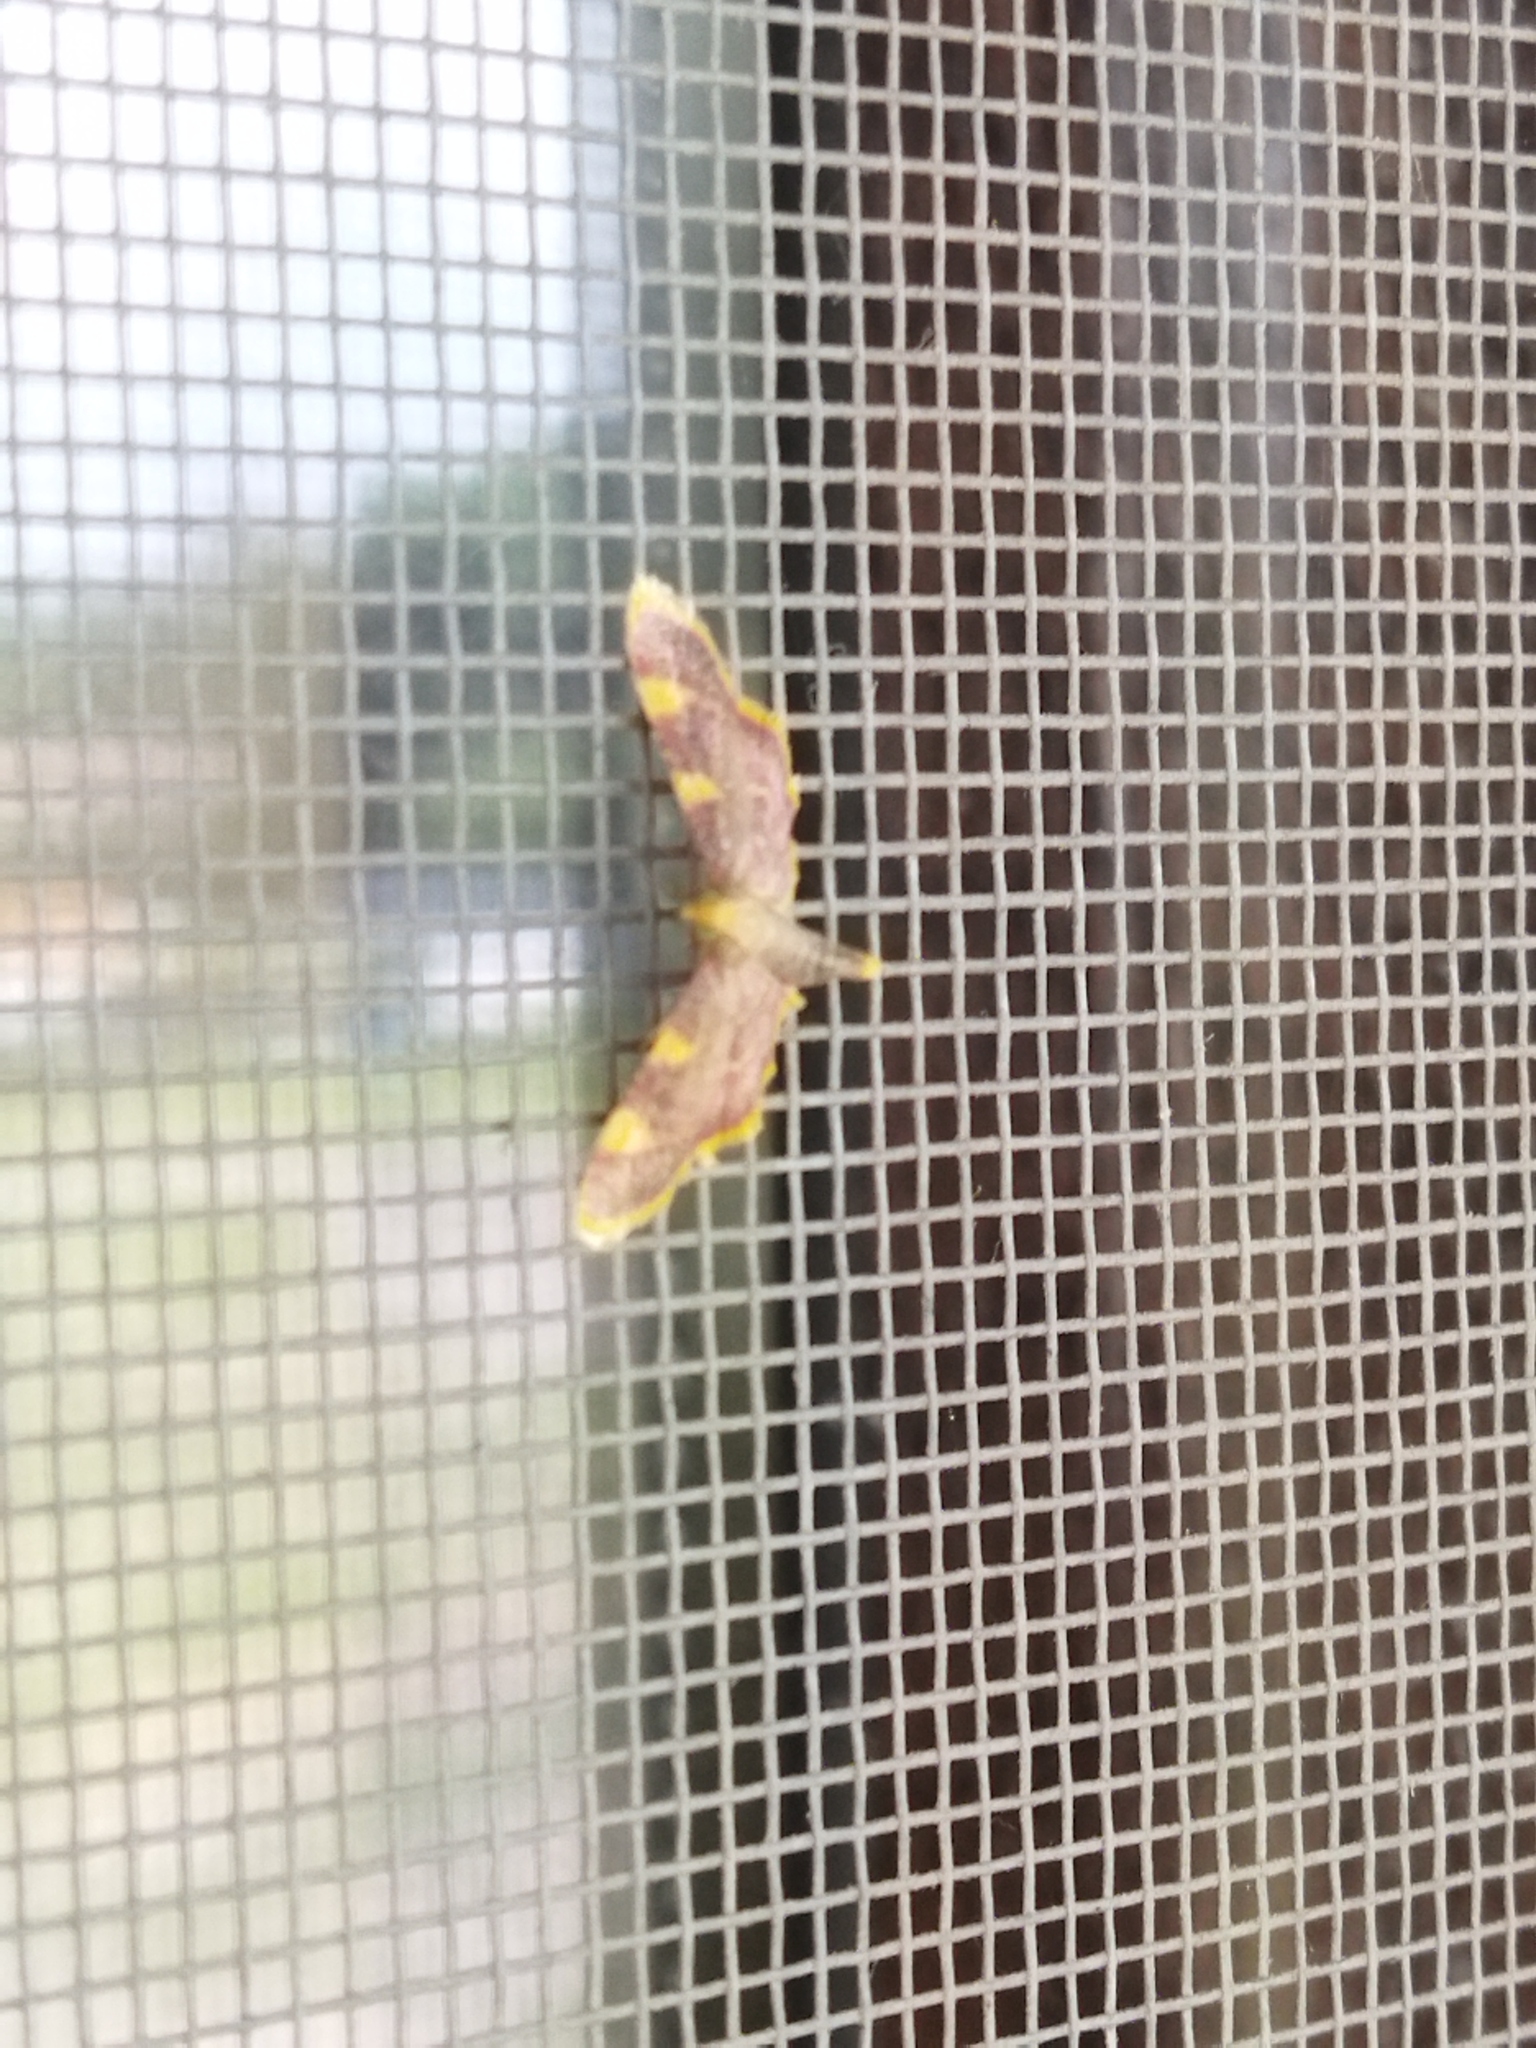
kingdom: Animalia
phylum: Arthropoda
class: Insecta
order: Lepidoptera
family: Pyralidae
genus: Hypsopygia
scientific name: Hypsopygia costalis
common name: Gold triangle
